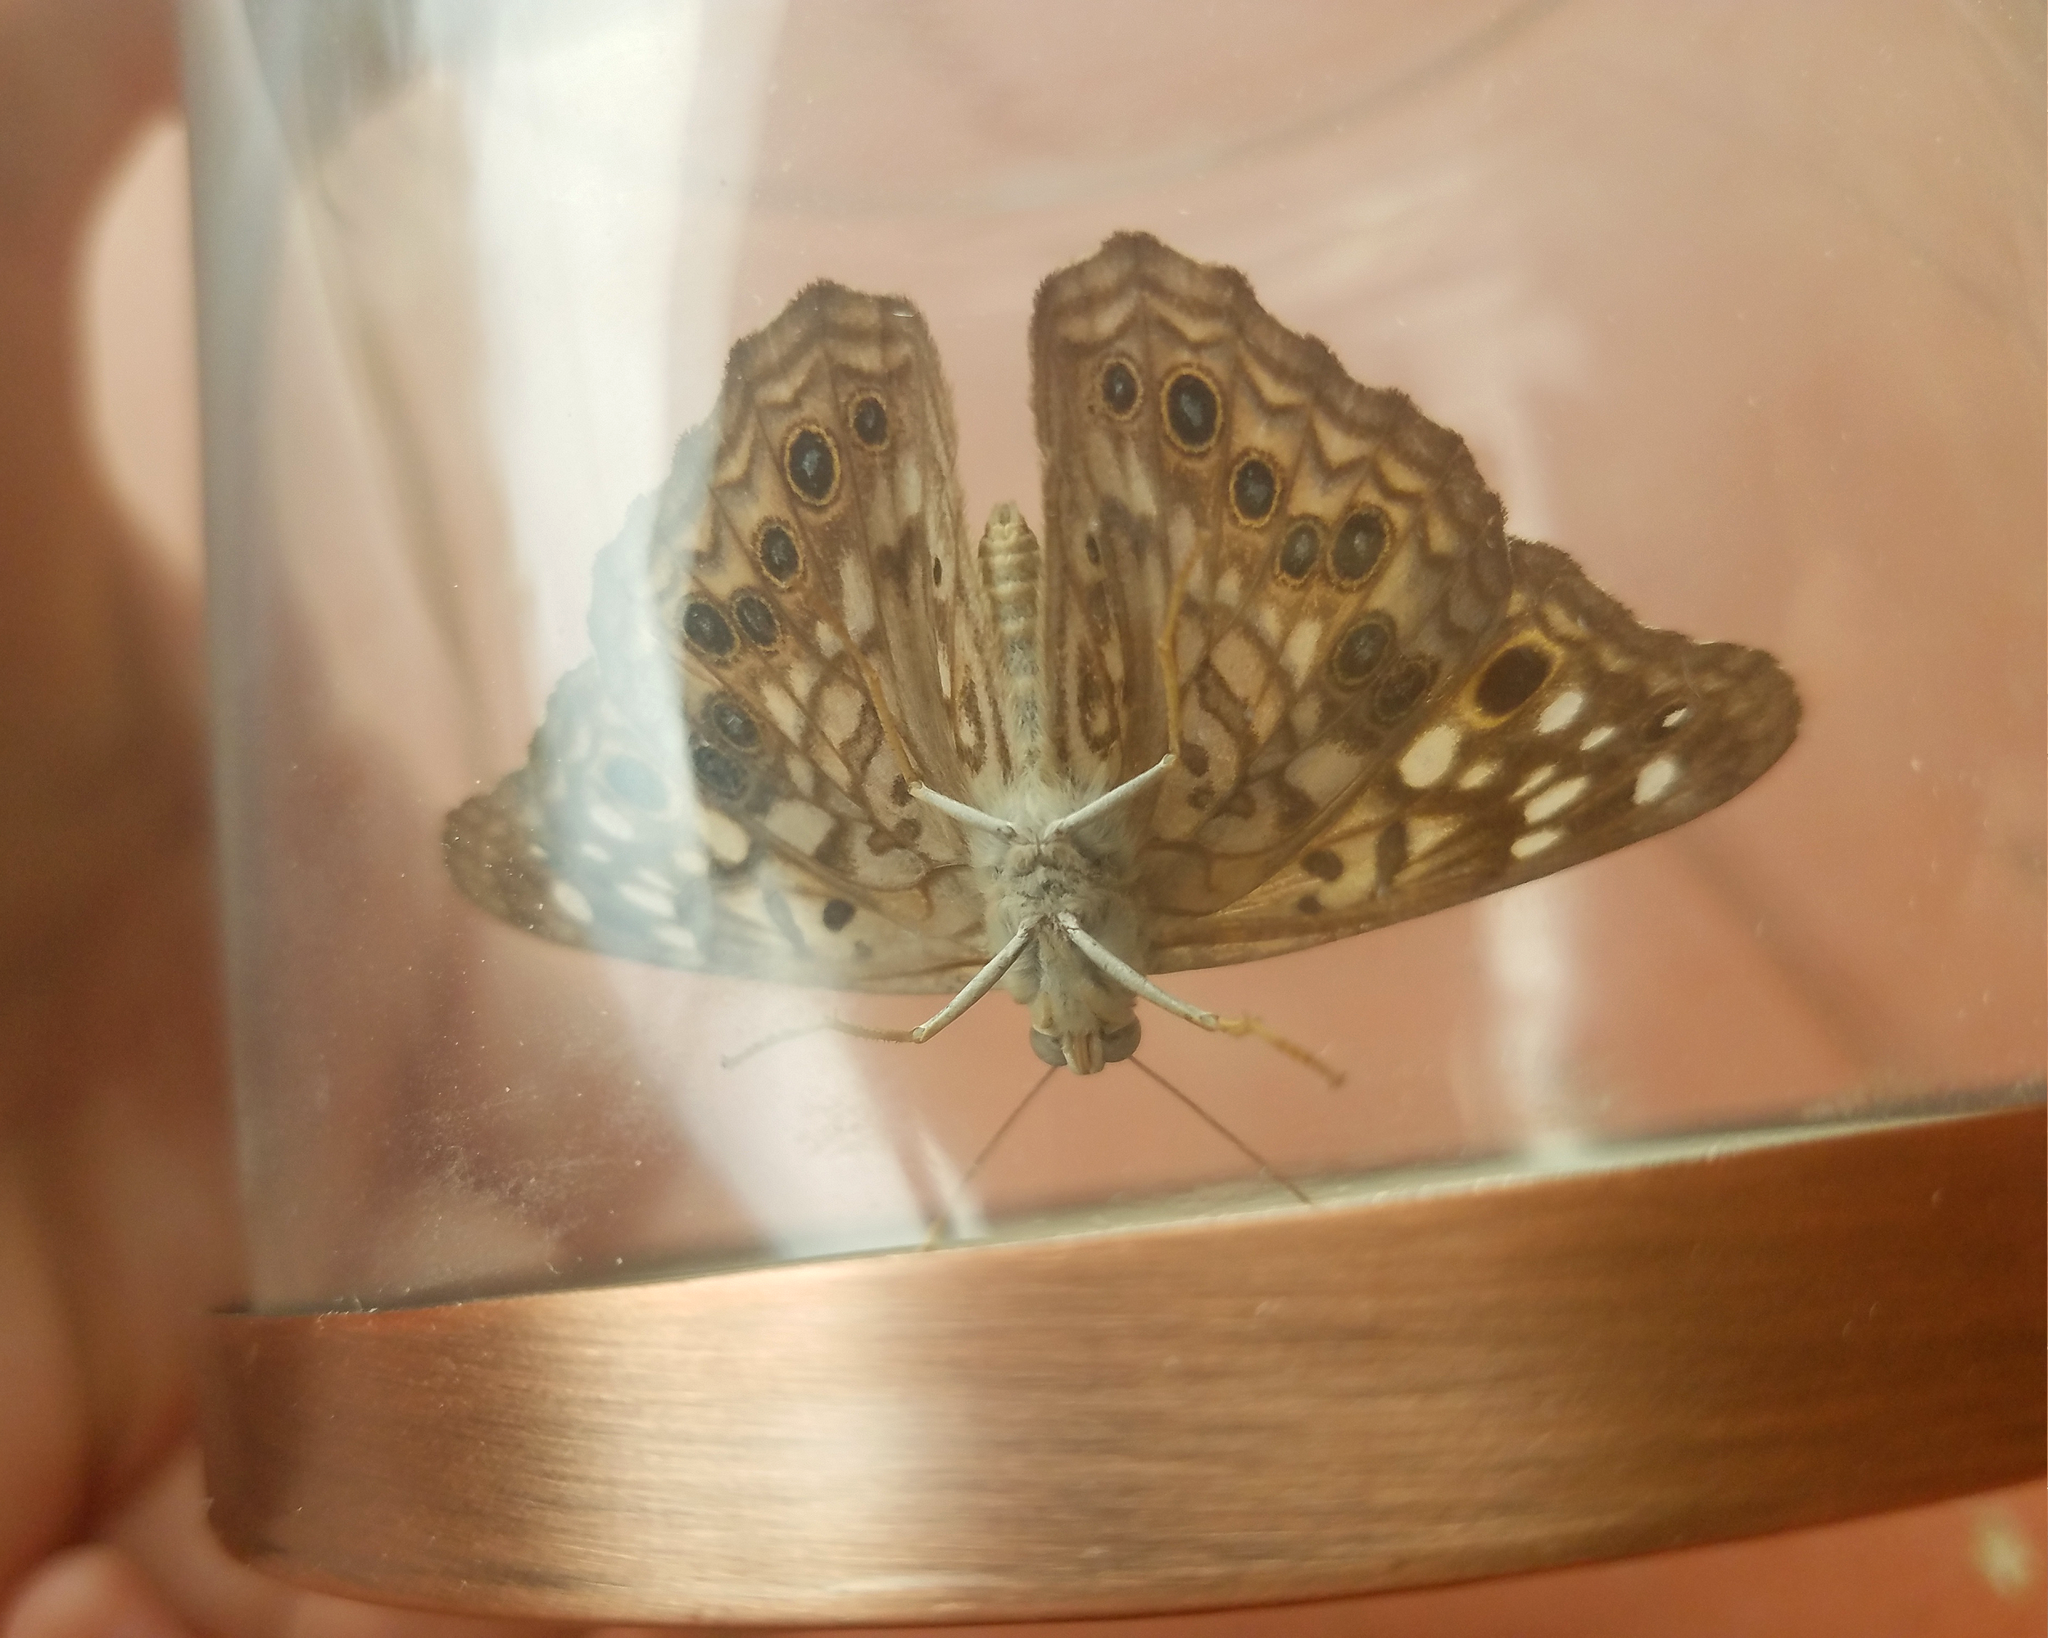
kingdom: Animalia
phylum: Arthropoda
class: Insecta
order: Lepidoptera
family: Nymphalidae
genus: Asterocampa
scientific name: Asterocampa celtis
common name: Hackberry emperor
